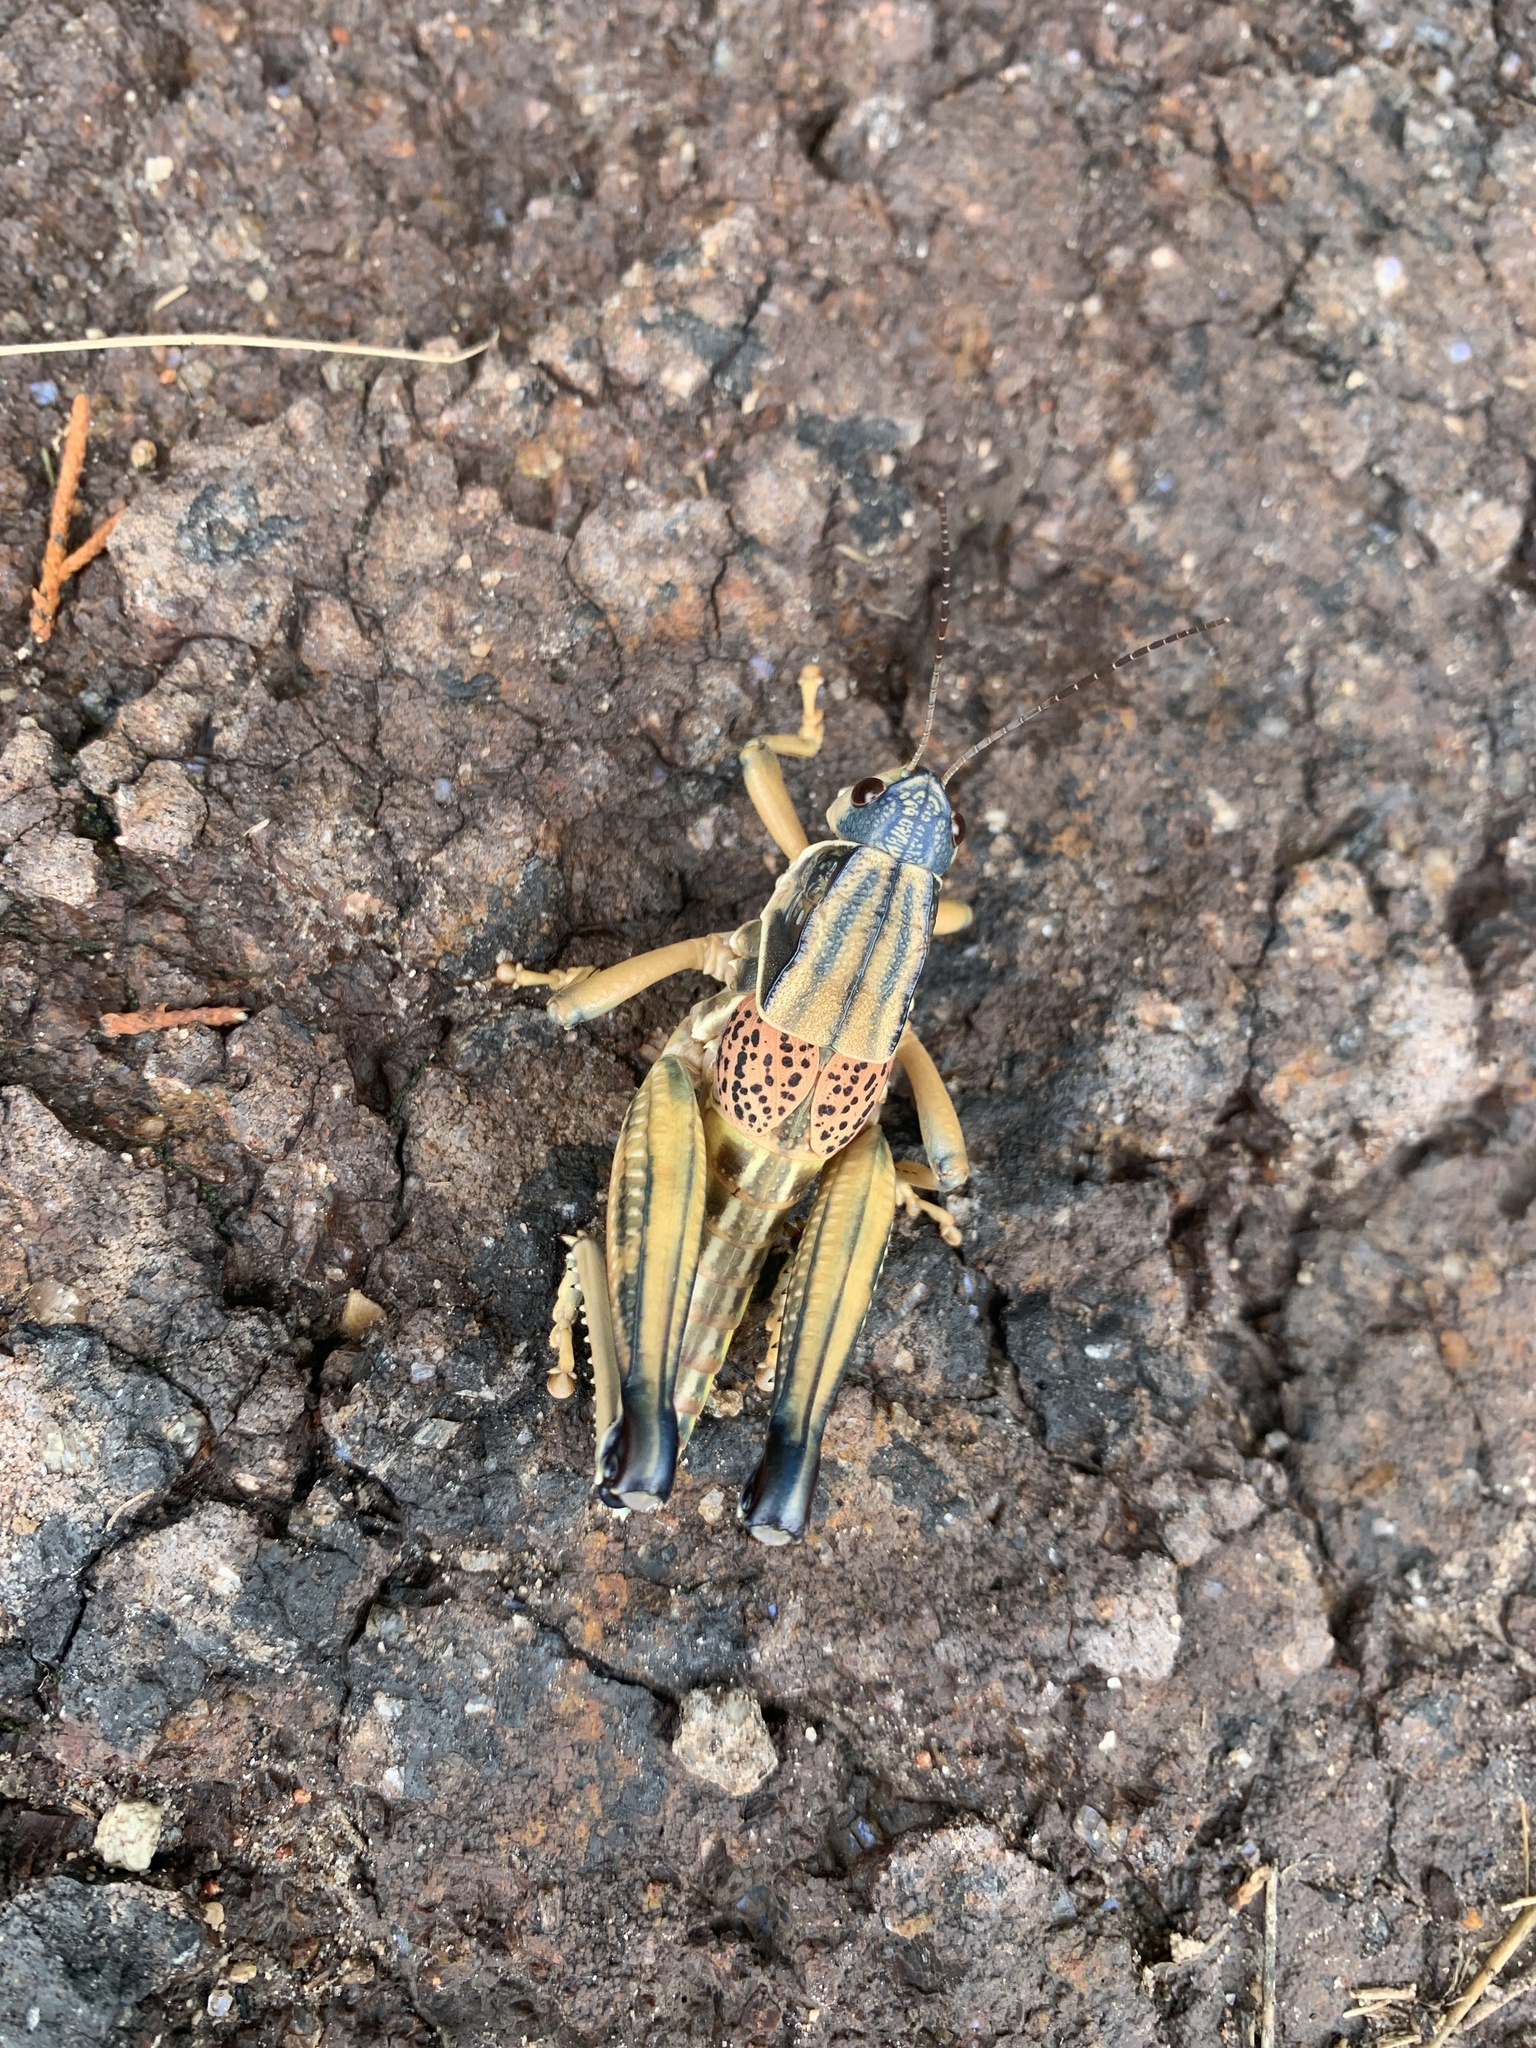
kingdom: Animalia
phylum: Arthropoda
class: Insecta
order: Orthoptera
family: Romaleidae
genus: Brachystola
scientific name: Brachystola magna
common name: Plains lubber grasshopper
